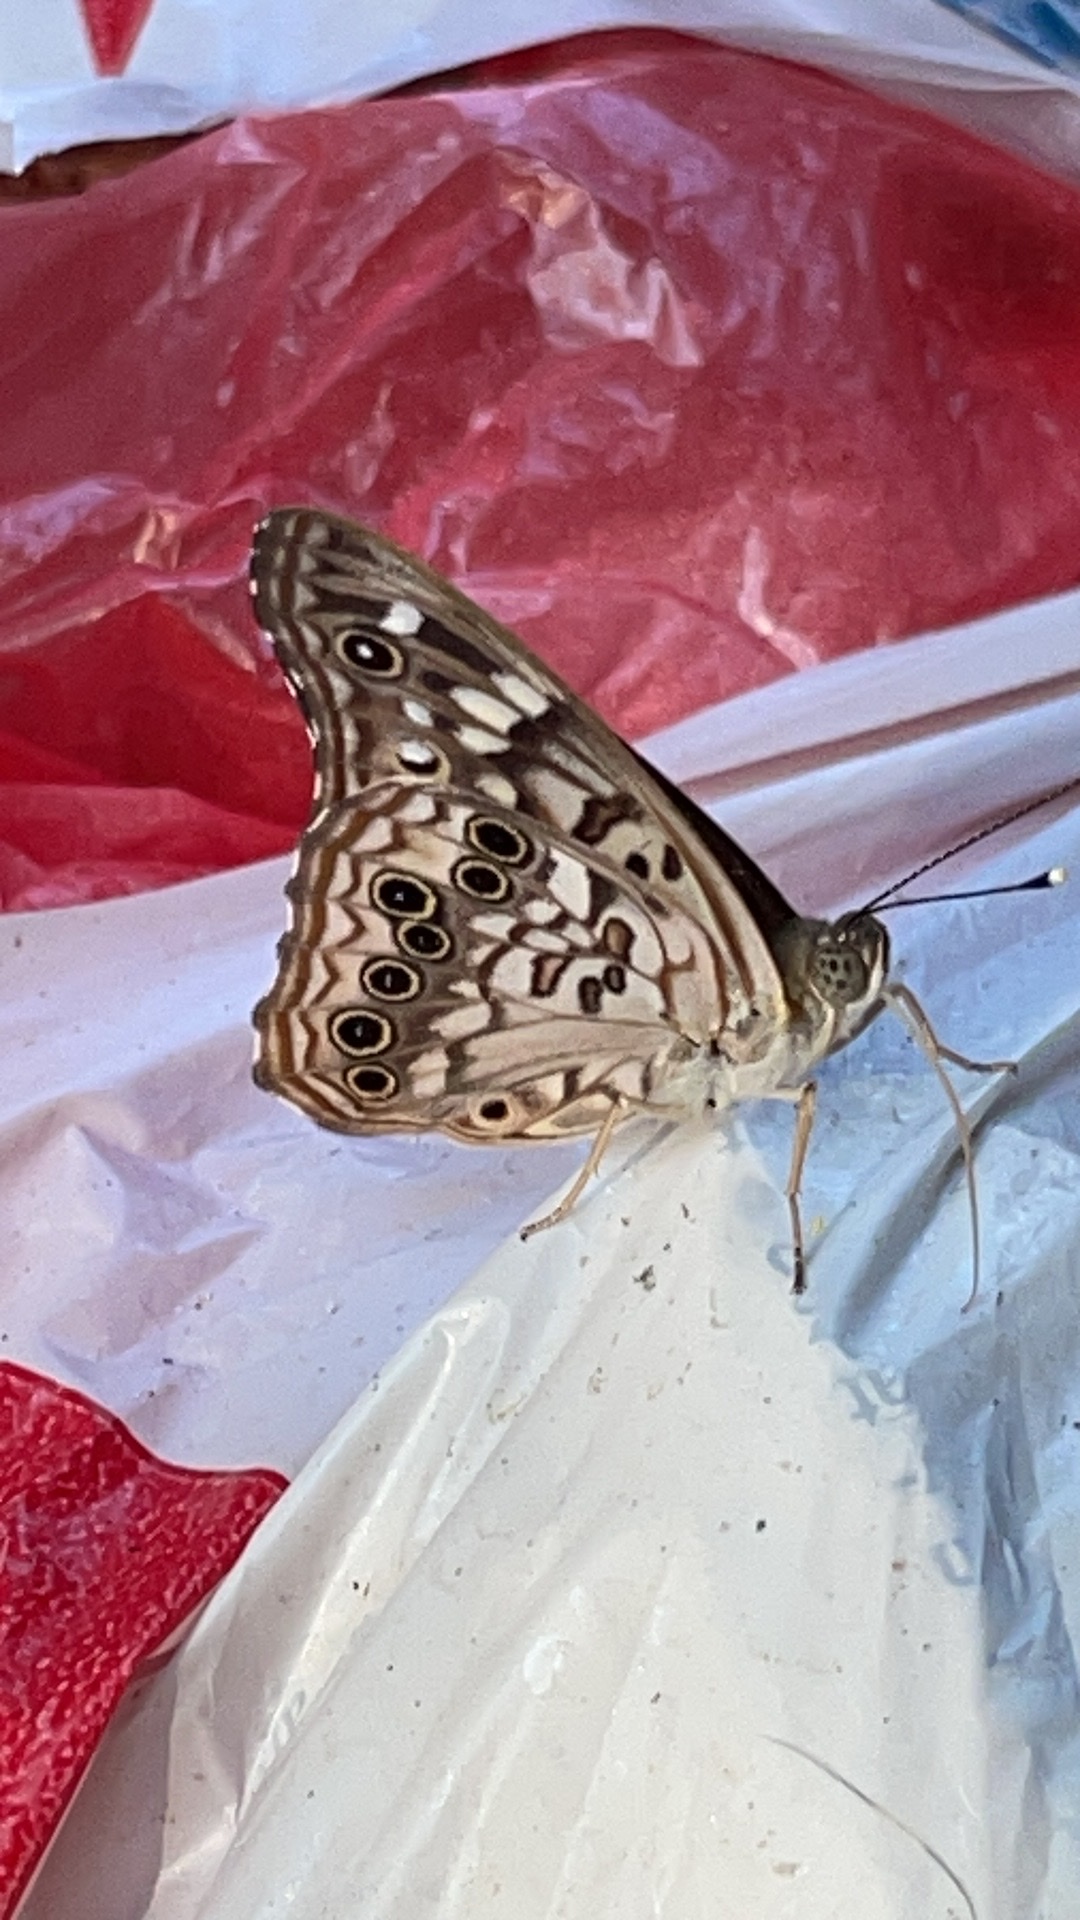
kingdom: Animalia
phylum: Arthropoda
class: Insecta
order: Lepidoptera
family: Nymphalidae
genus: Asterocampa
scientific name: Asterocampa celtis
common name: Hackberry emperor
